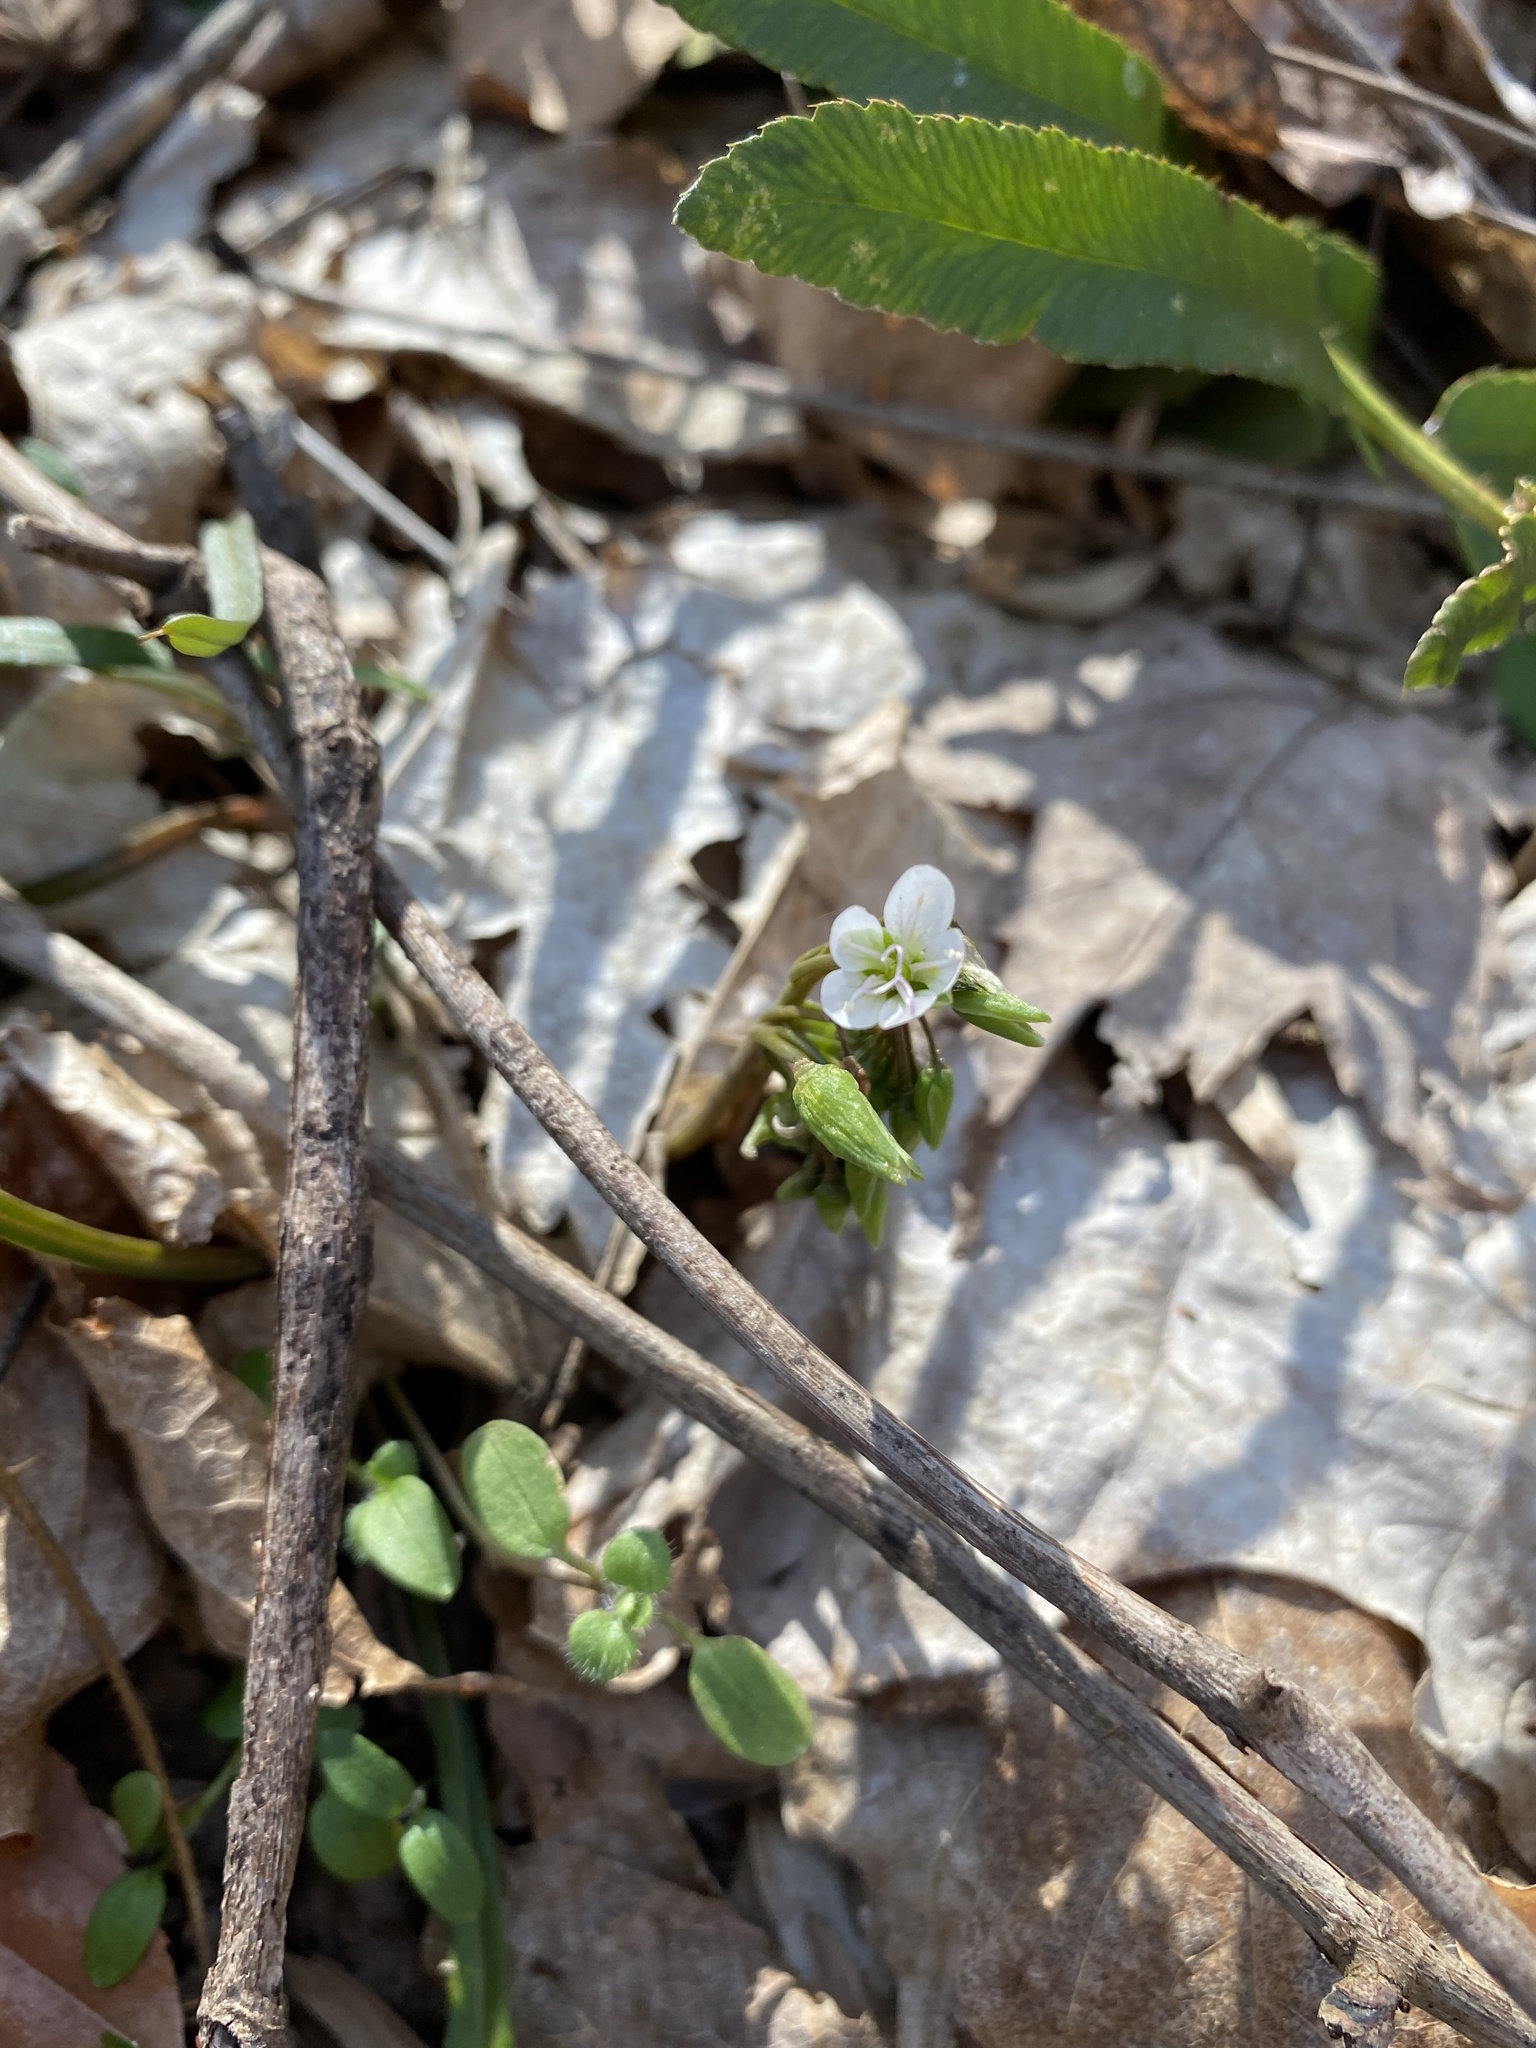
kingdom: Plantae
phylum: Tracheophyta
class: Magnoliopsida
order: Caryophyllales
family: Montiaceae
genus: Claytonia
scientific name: Claytonia virginica
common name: Virginia springbeauty
